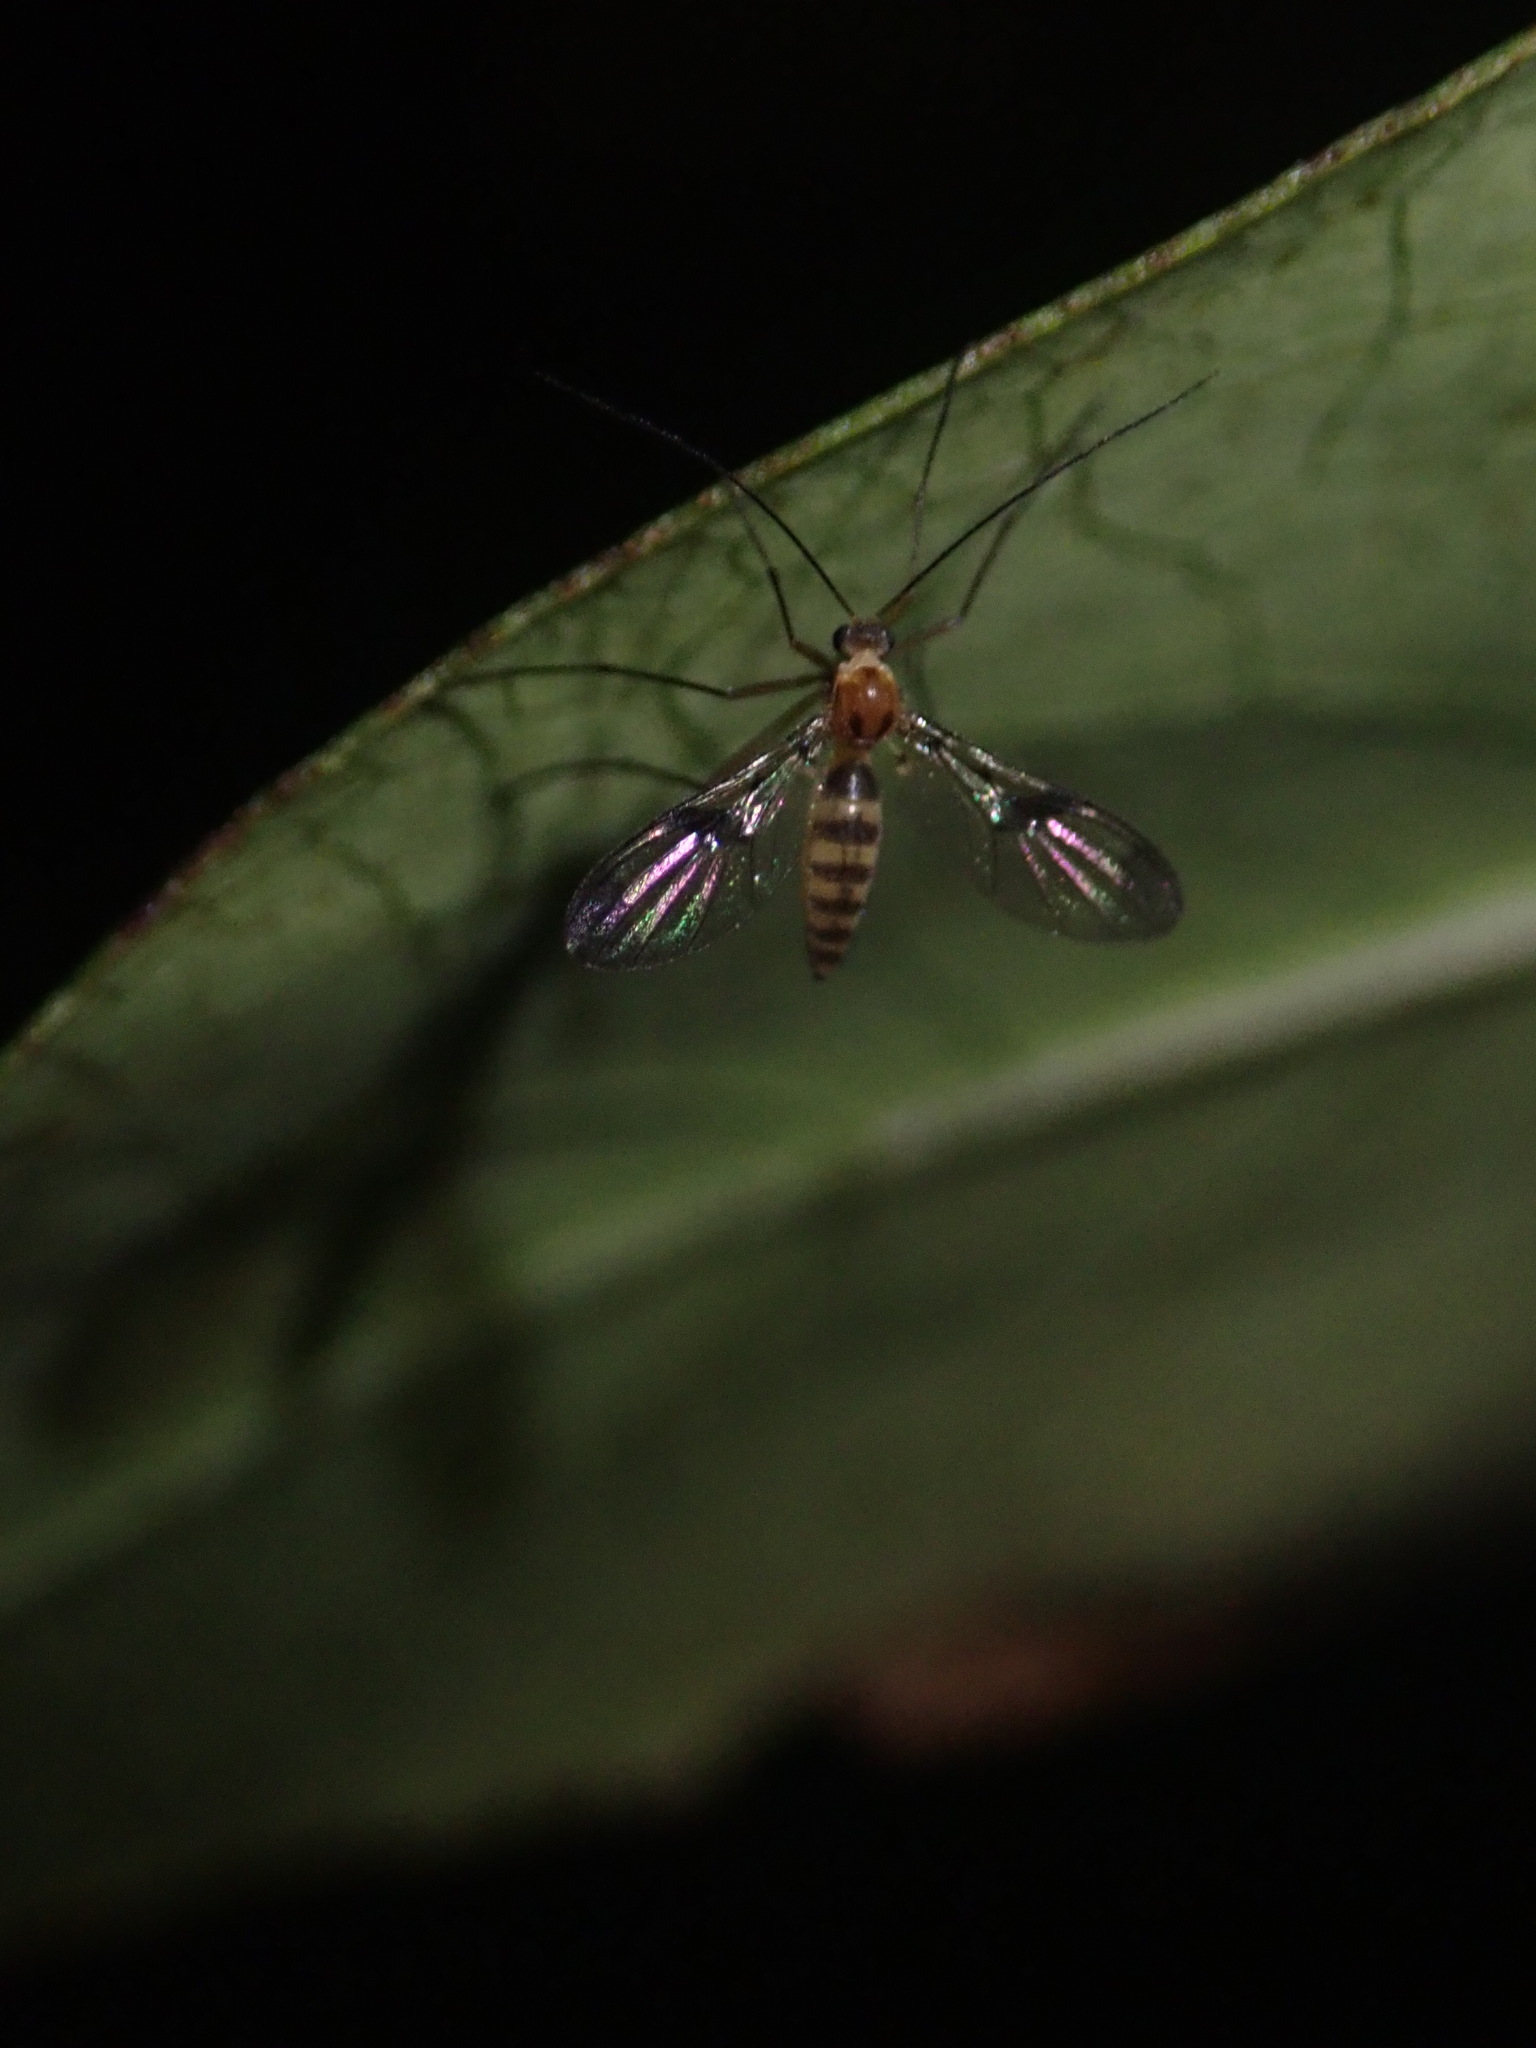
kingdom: Animalia
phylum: Arthropoda
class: Insecta
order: Diptera
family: Keroplatidae
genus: Macrocera
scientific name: Macrocera scoparia
